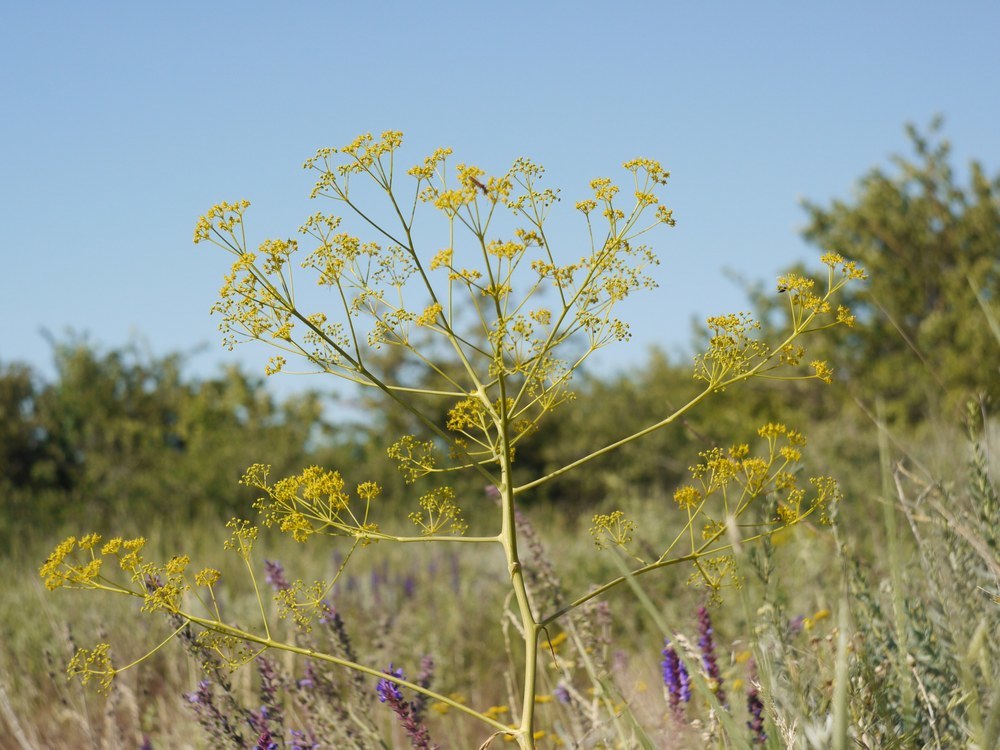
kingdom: Plantae
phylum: Tracheophyta
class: Magnoliopsida
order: Apiales
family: Apiaceae
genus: Ferula
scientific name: Ferula caspica
